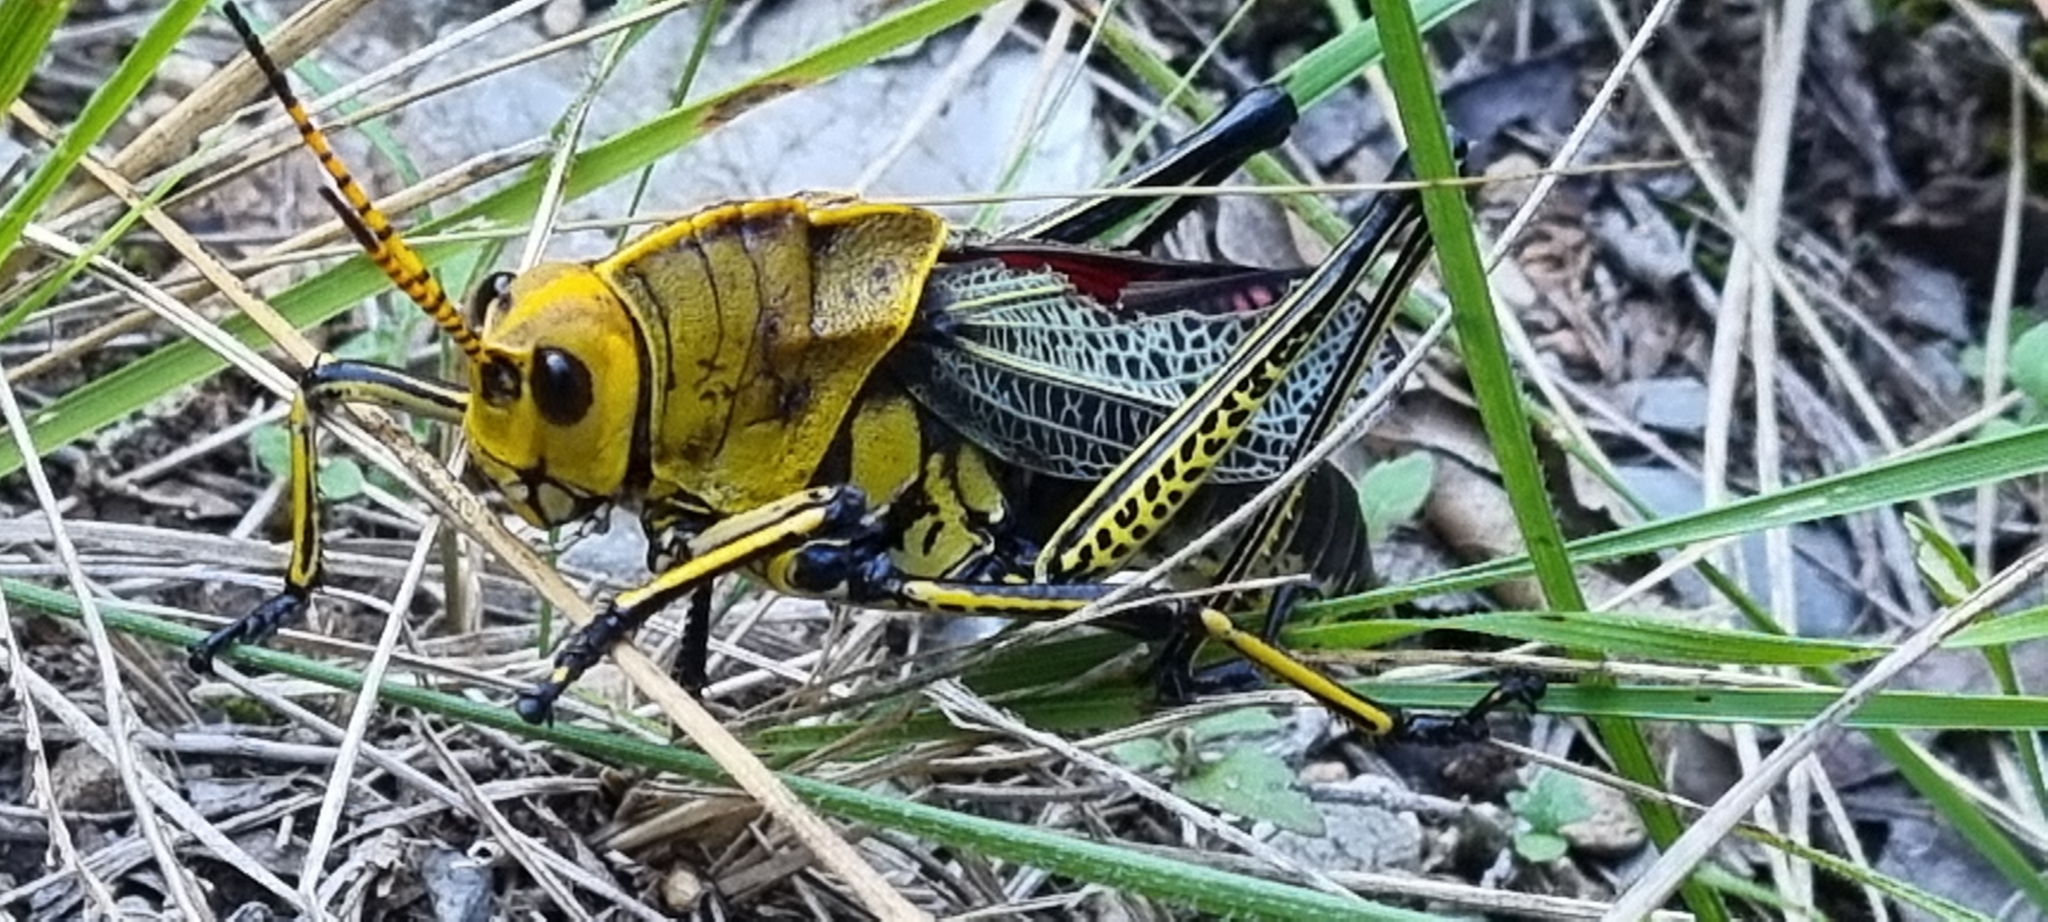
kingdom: Animalia
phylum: Arthropoda
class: Insecta
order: Orthoptera
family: Romaleidae
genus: Romalea
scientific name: Romalea
